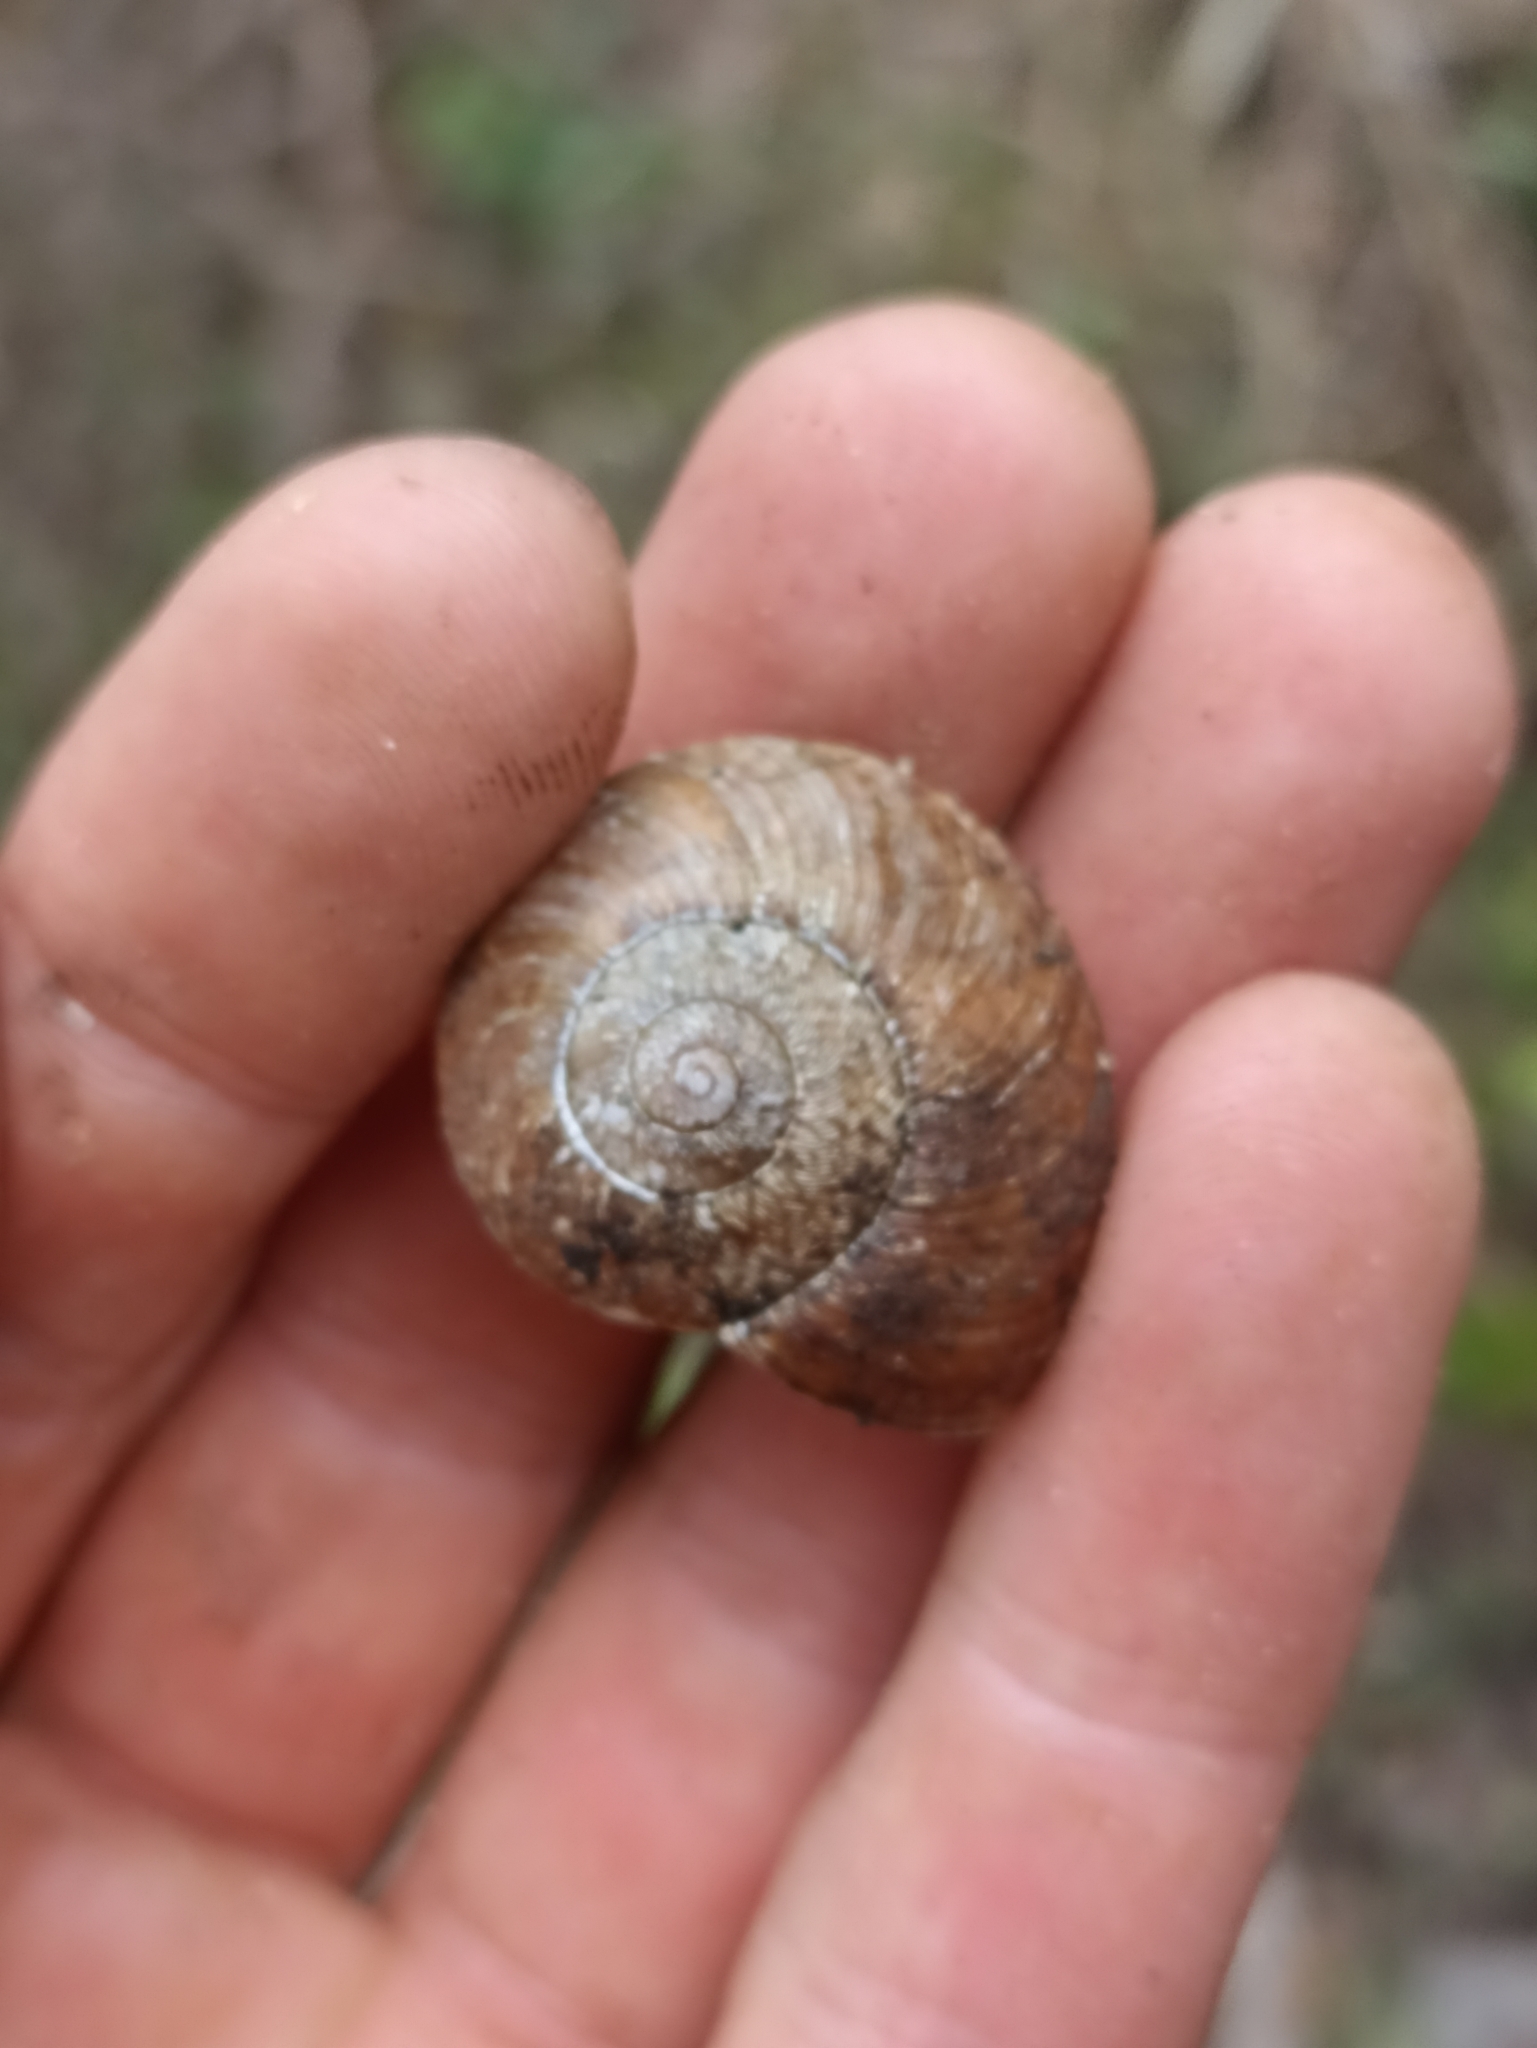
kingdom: Animalia
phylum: Mollusca
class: Gastropoda
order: Stylommatophora
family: Rhytididae
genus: Amborhytida
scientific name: Amborhytida dunniae
